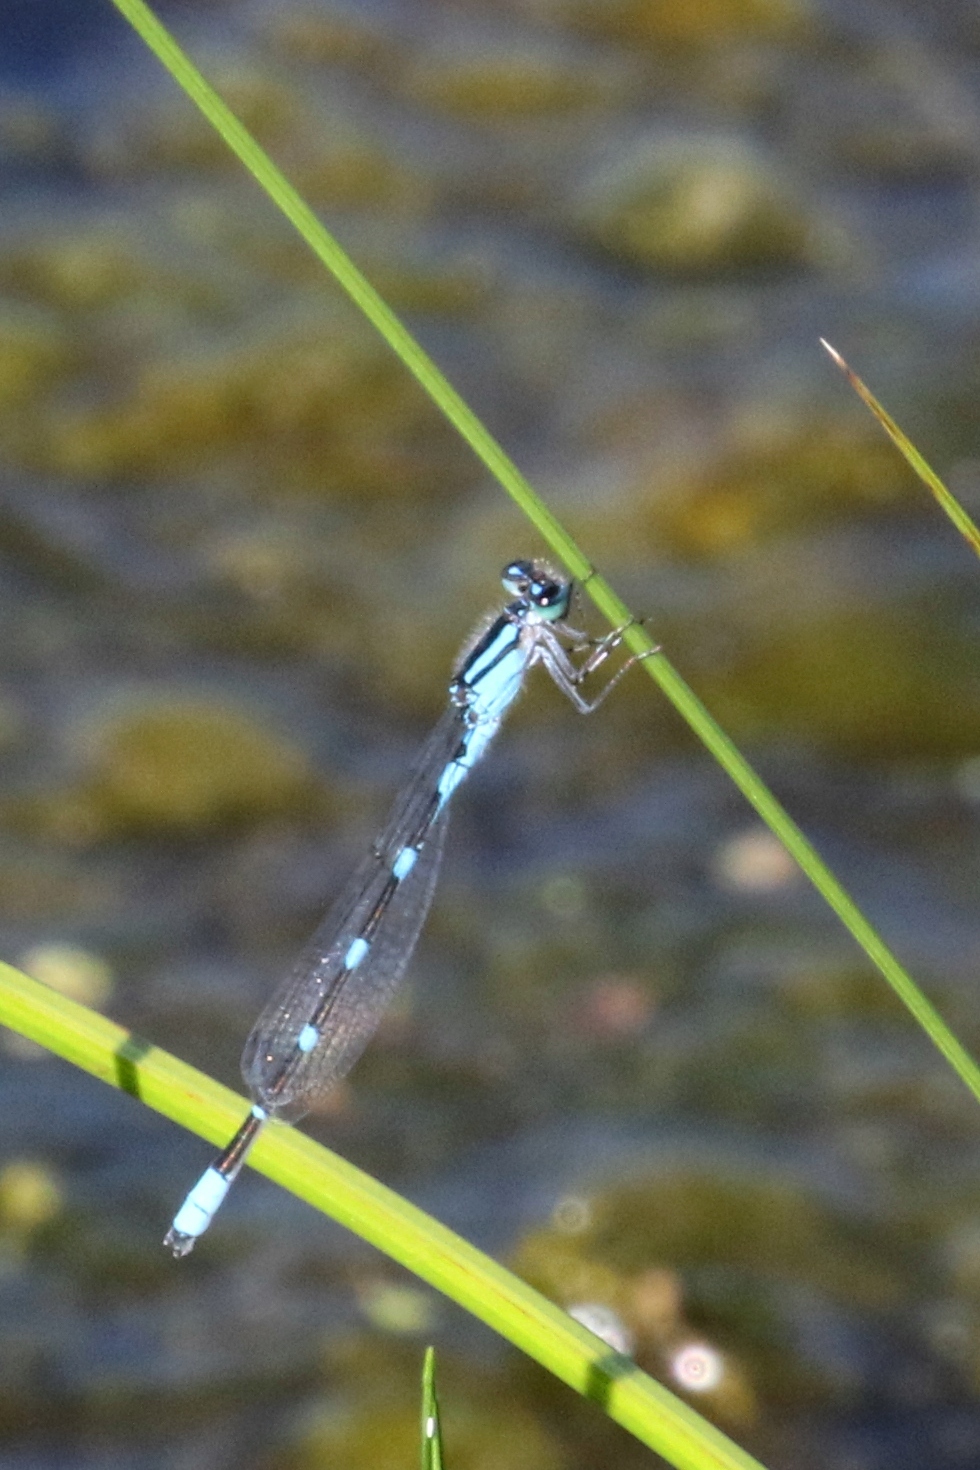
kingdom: Animalia
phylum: Arthropoda
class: Insecta
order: Odonata
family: Coenagrionidae
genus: Enallagma
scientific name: Enallagma carunculatum
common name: Tule bluet
